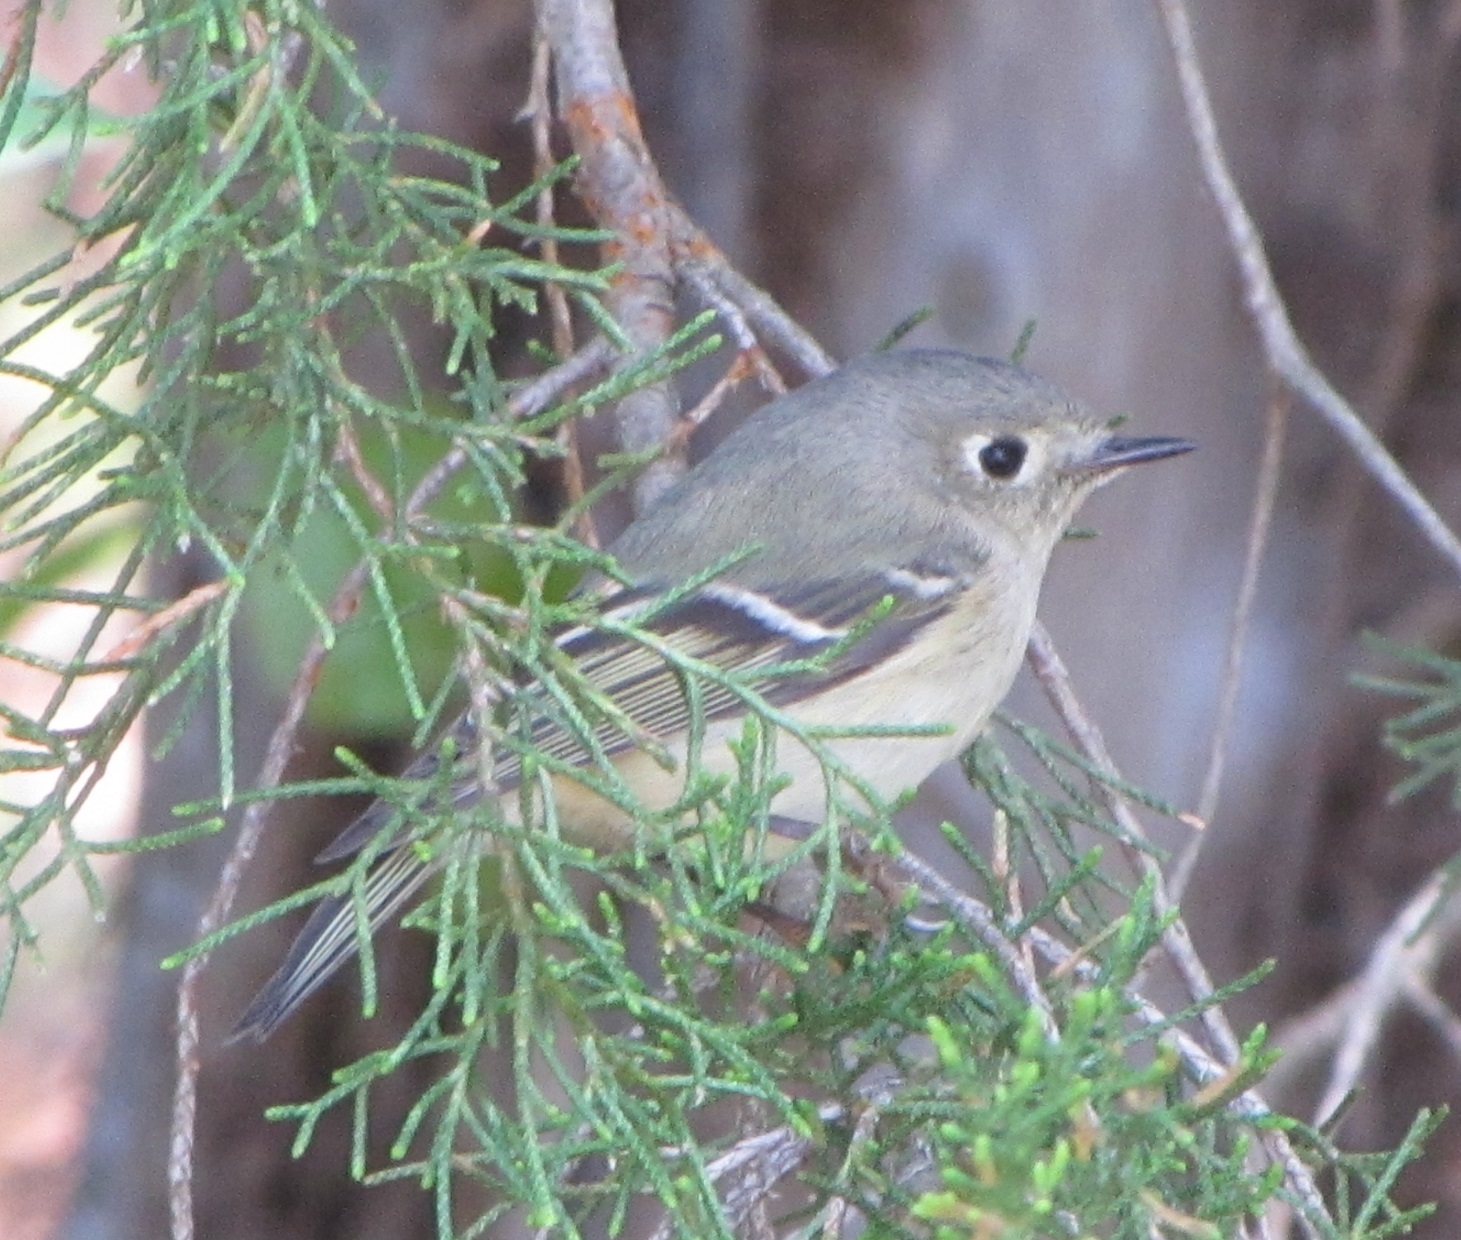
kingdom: Animalia
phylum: Chordata
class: Aves
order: Passeriformes
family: Regulidae
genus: Regulus
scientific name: Regulus calendula
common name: Ruby-crowned kinglet
